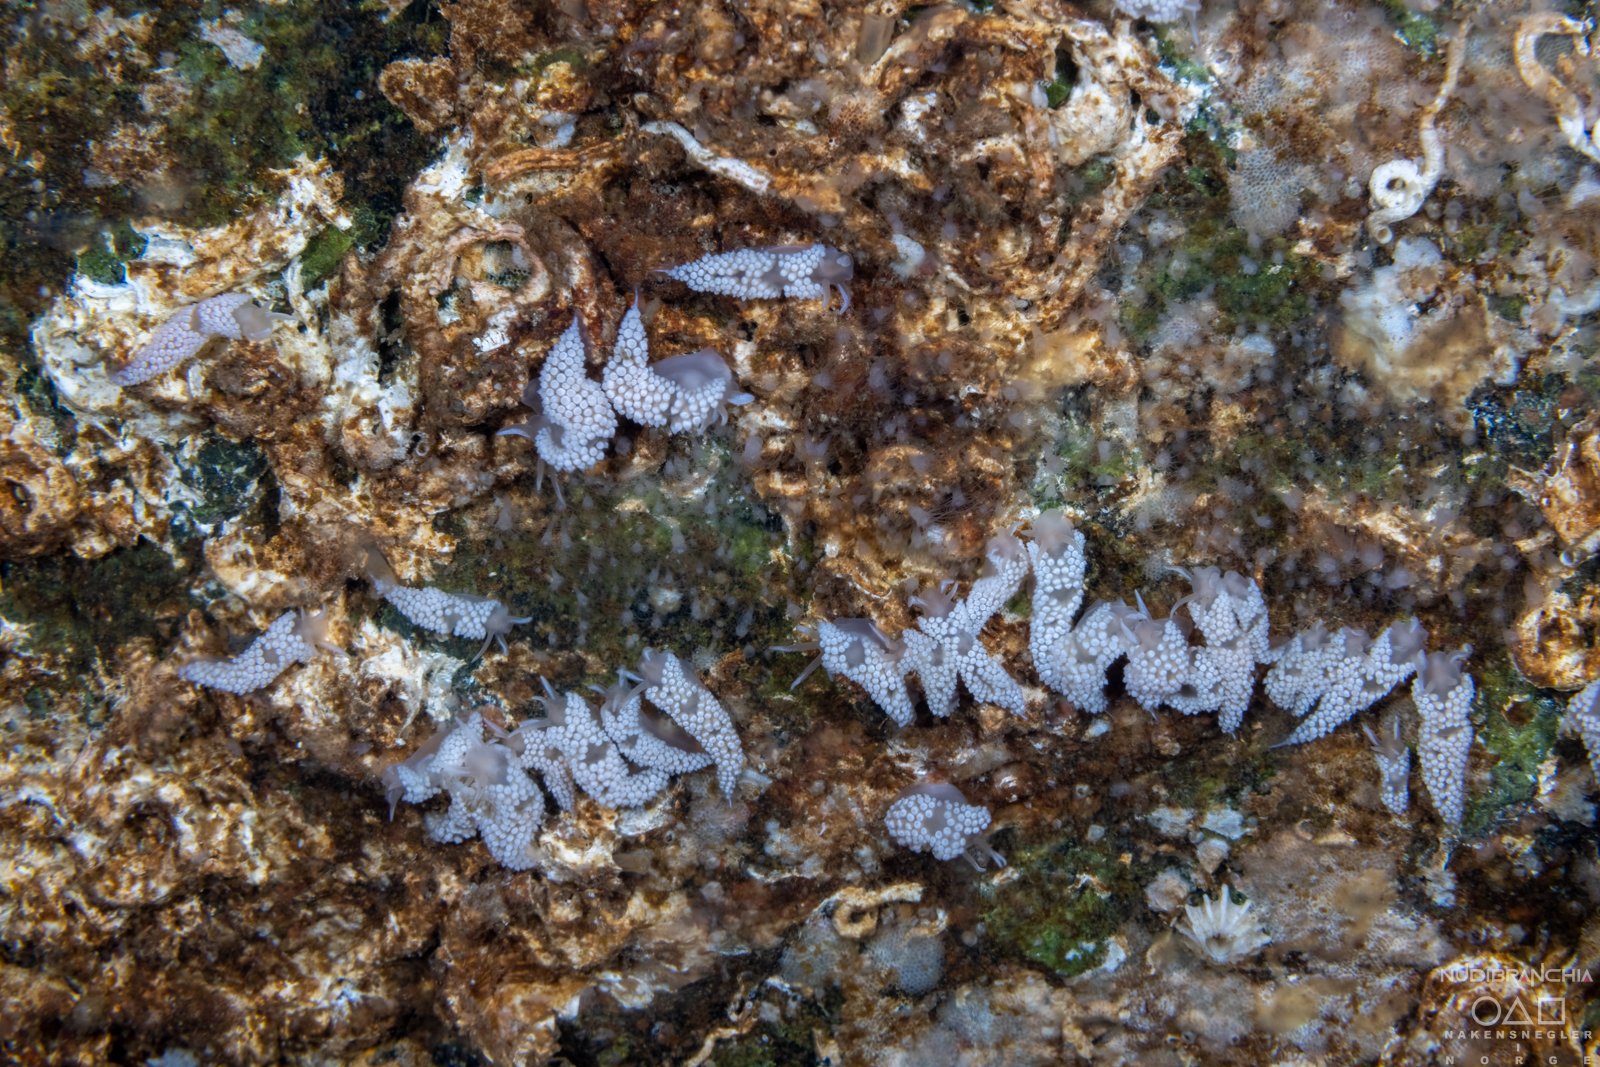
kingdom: Animalia
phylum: Mollusca
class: Gastropoda
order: Nudibranchia
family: Coryphellidae
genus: Coryphella
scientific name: Coryphella verrucosa
